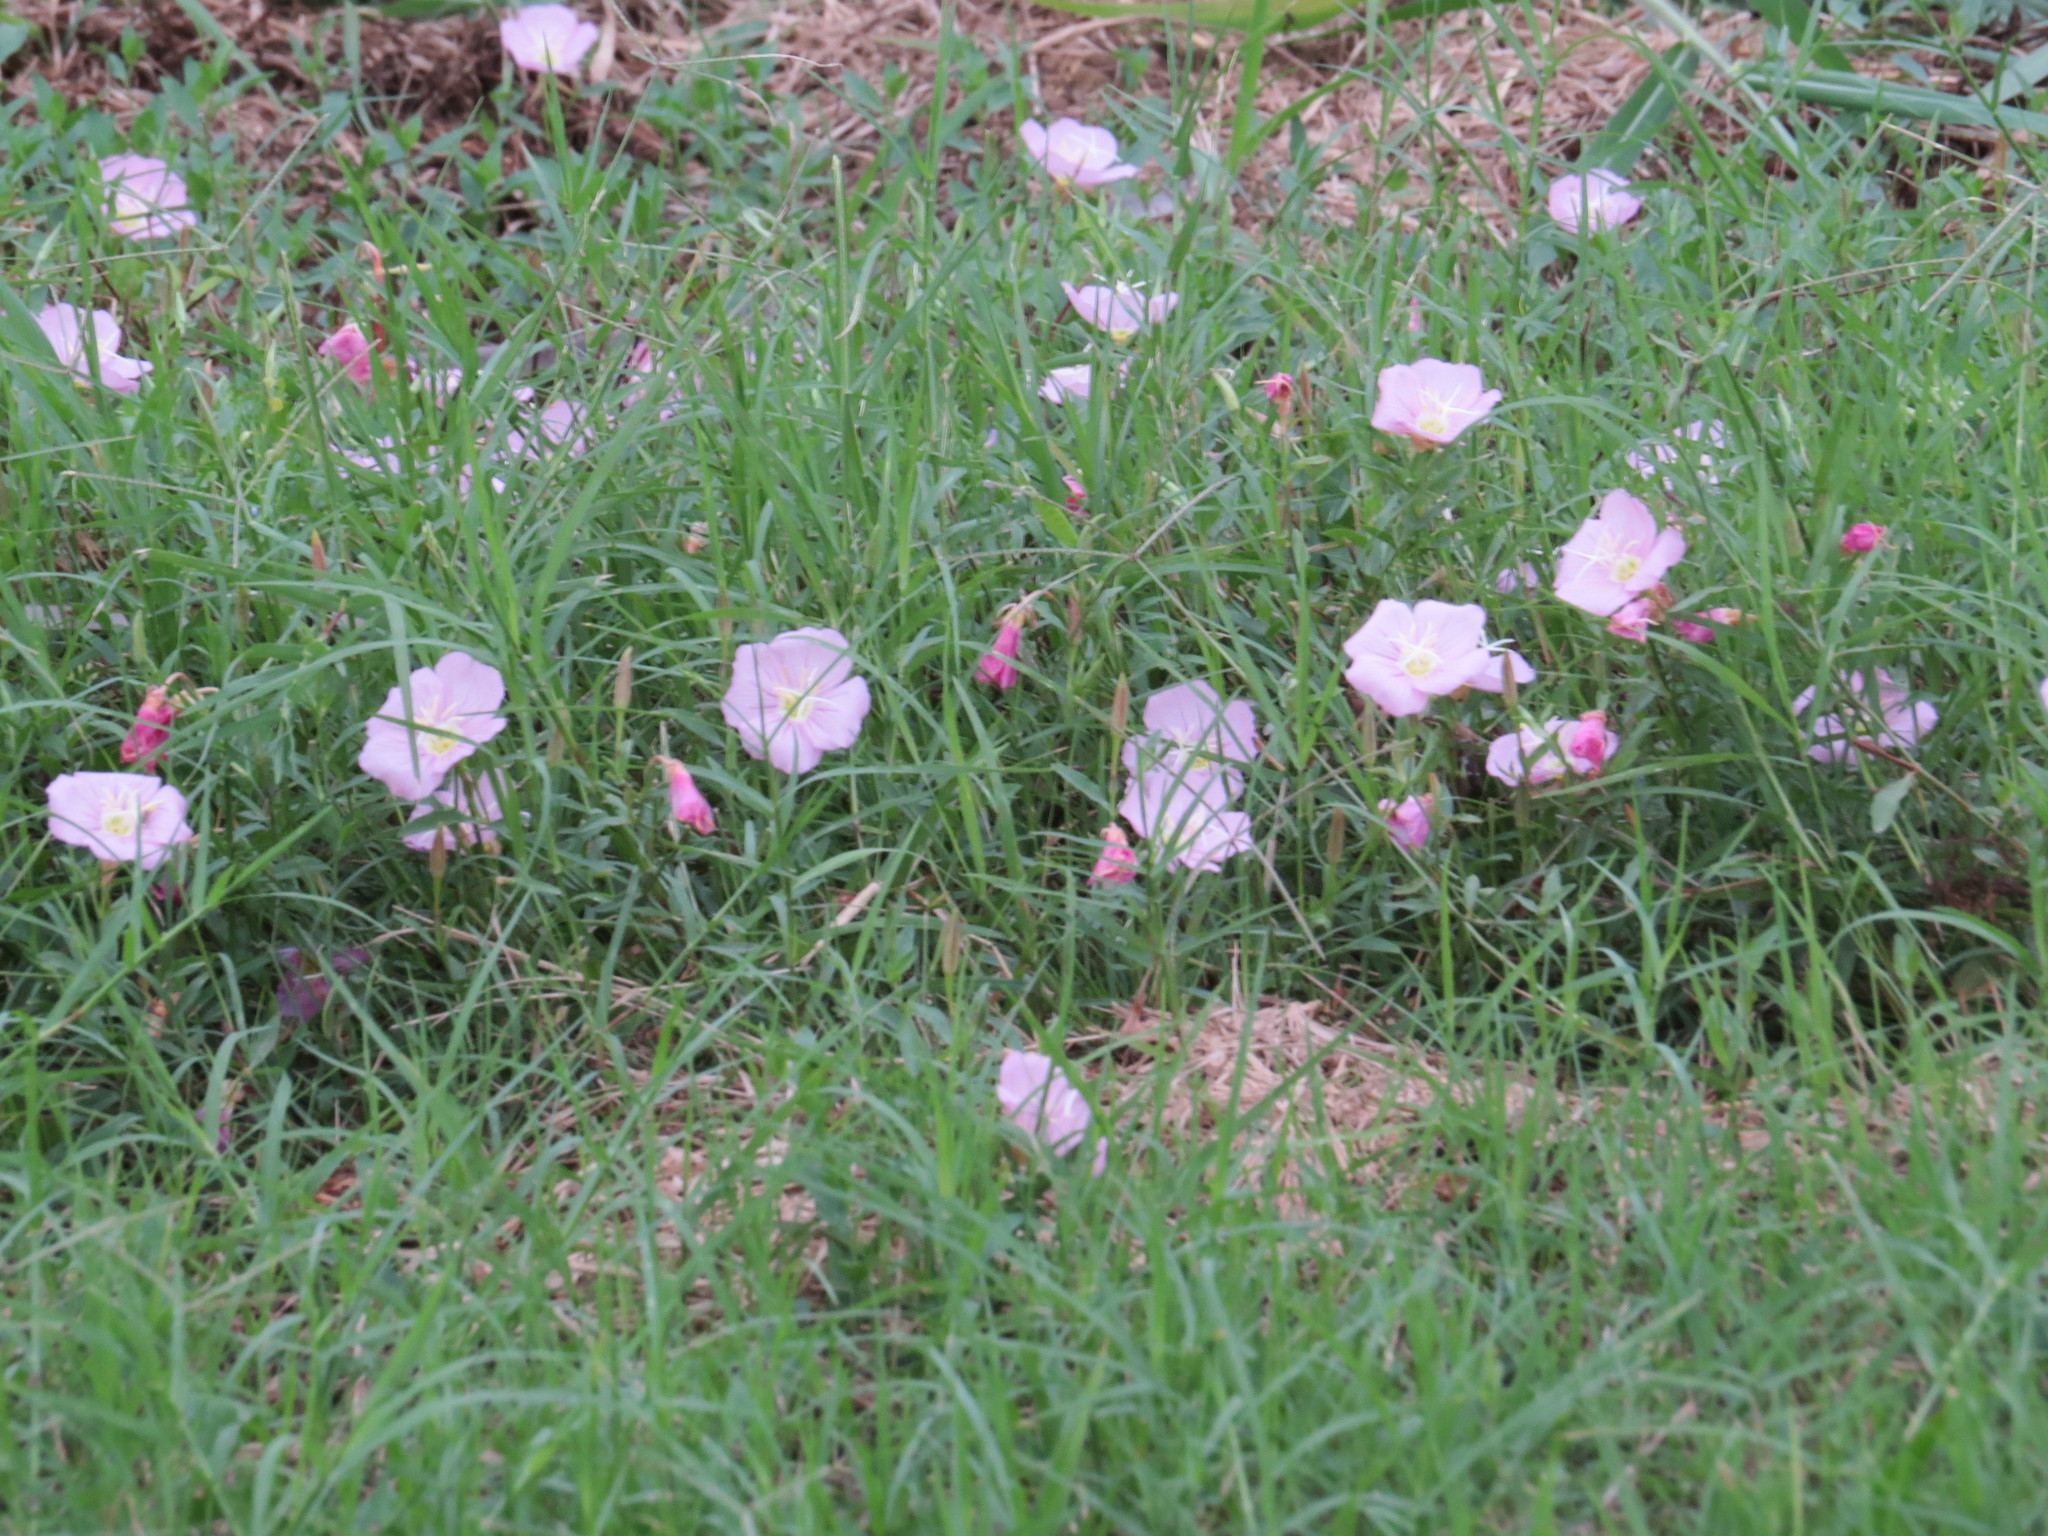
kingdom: Plantae
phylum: Tracheophyta
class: Magnoliopsida
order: Myrtales
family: Onagraceae
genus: Oenothera
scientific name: Oenothera speciosa
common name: White evening-primrose
